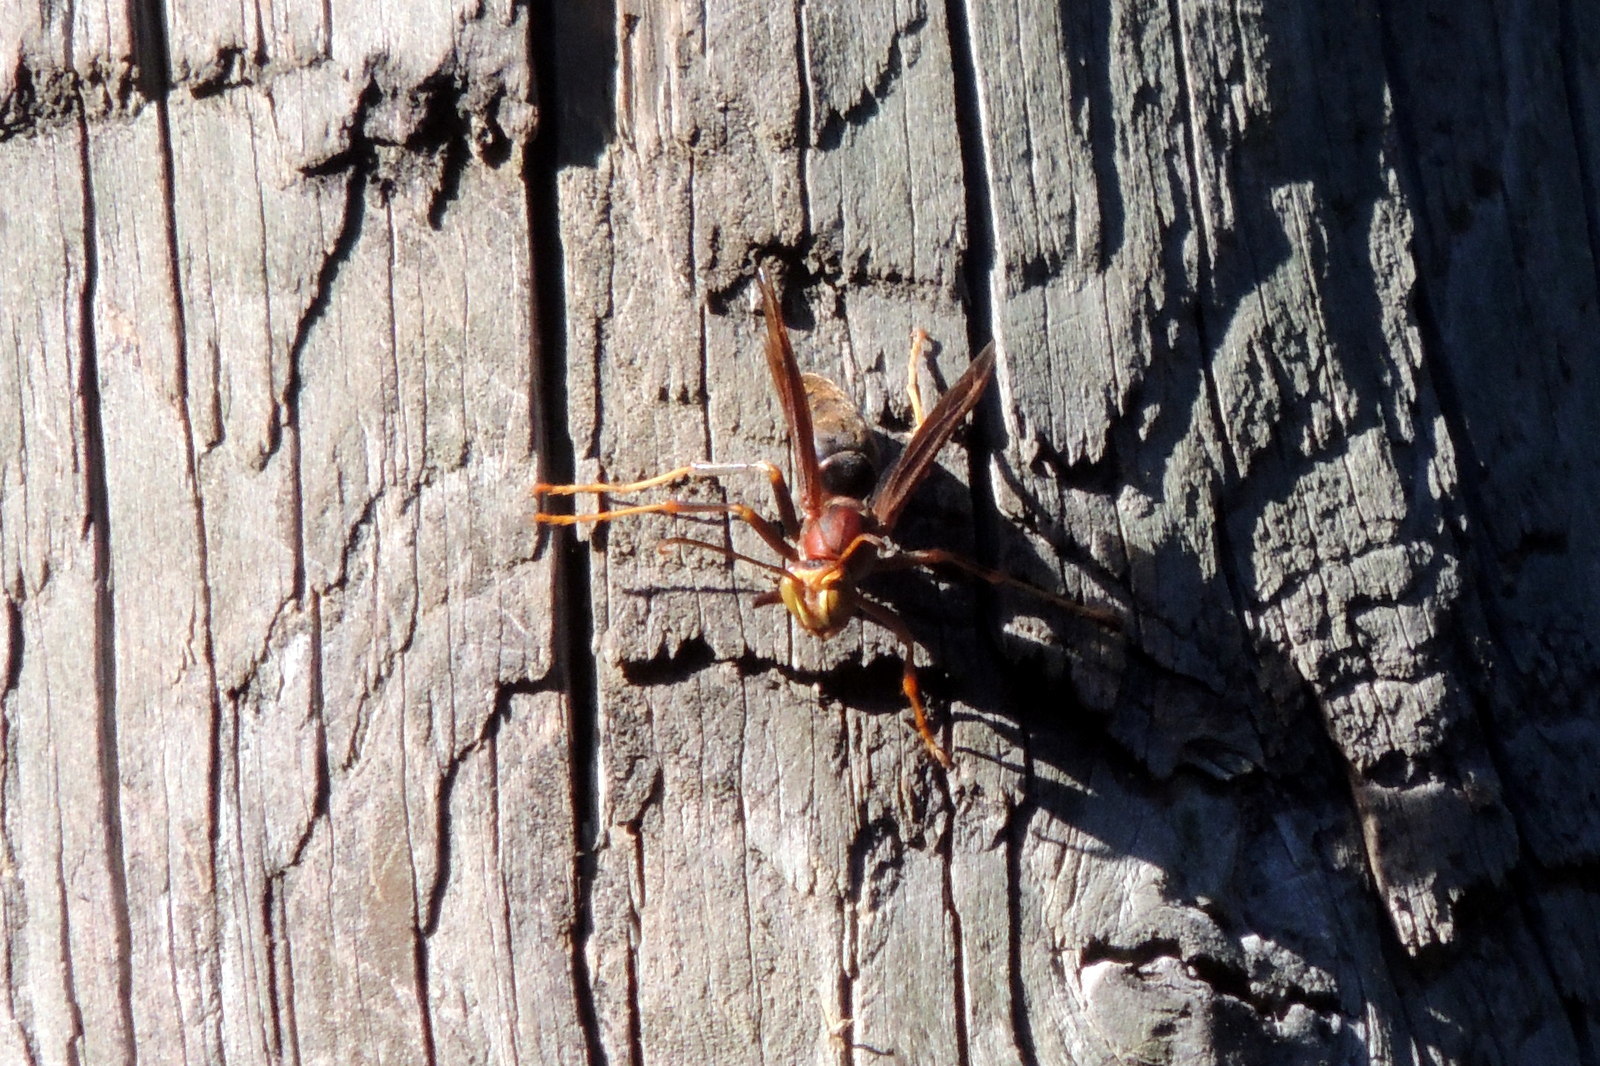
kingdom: Animalia
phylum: Arthropoda
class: Insecta
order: Hymenoptera
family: Eumenidae
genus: Polistes
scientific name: Polistes metricus
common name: Metric paper wasp
